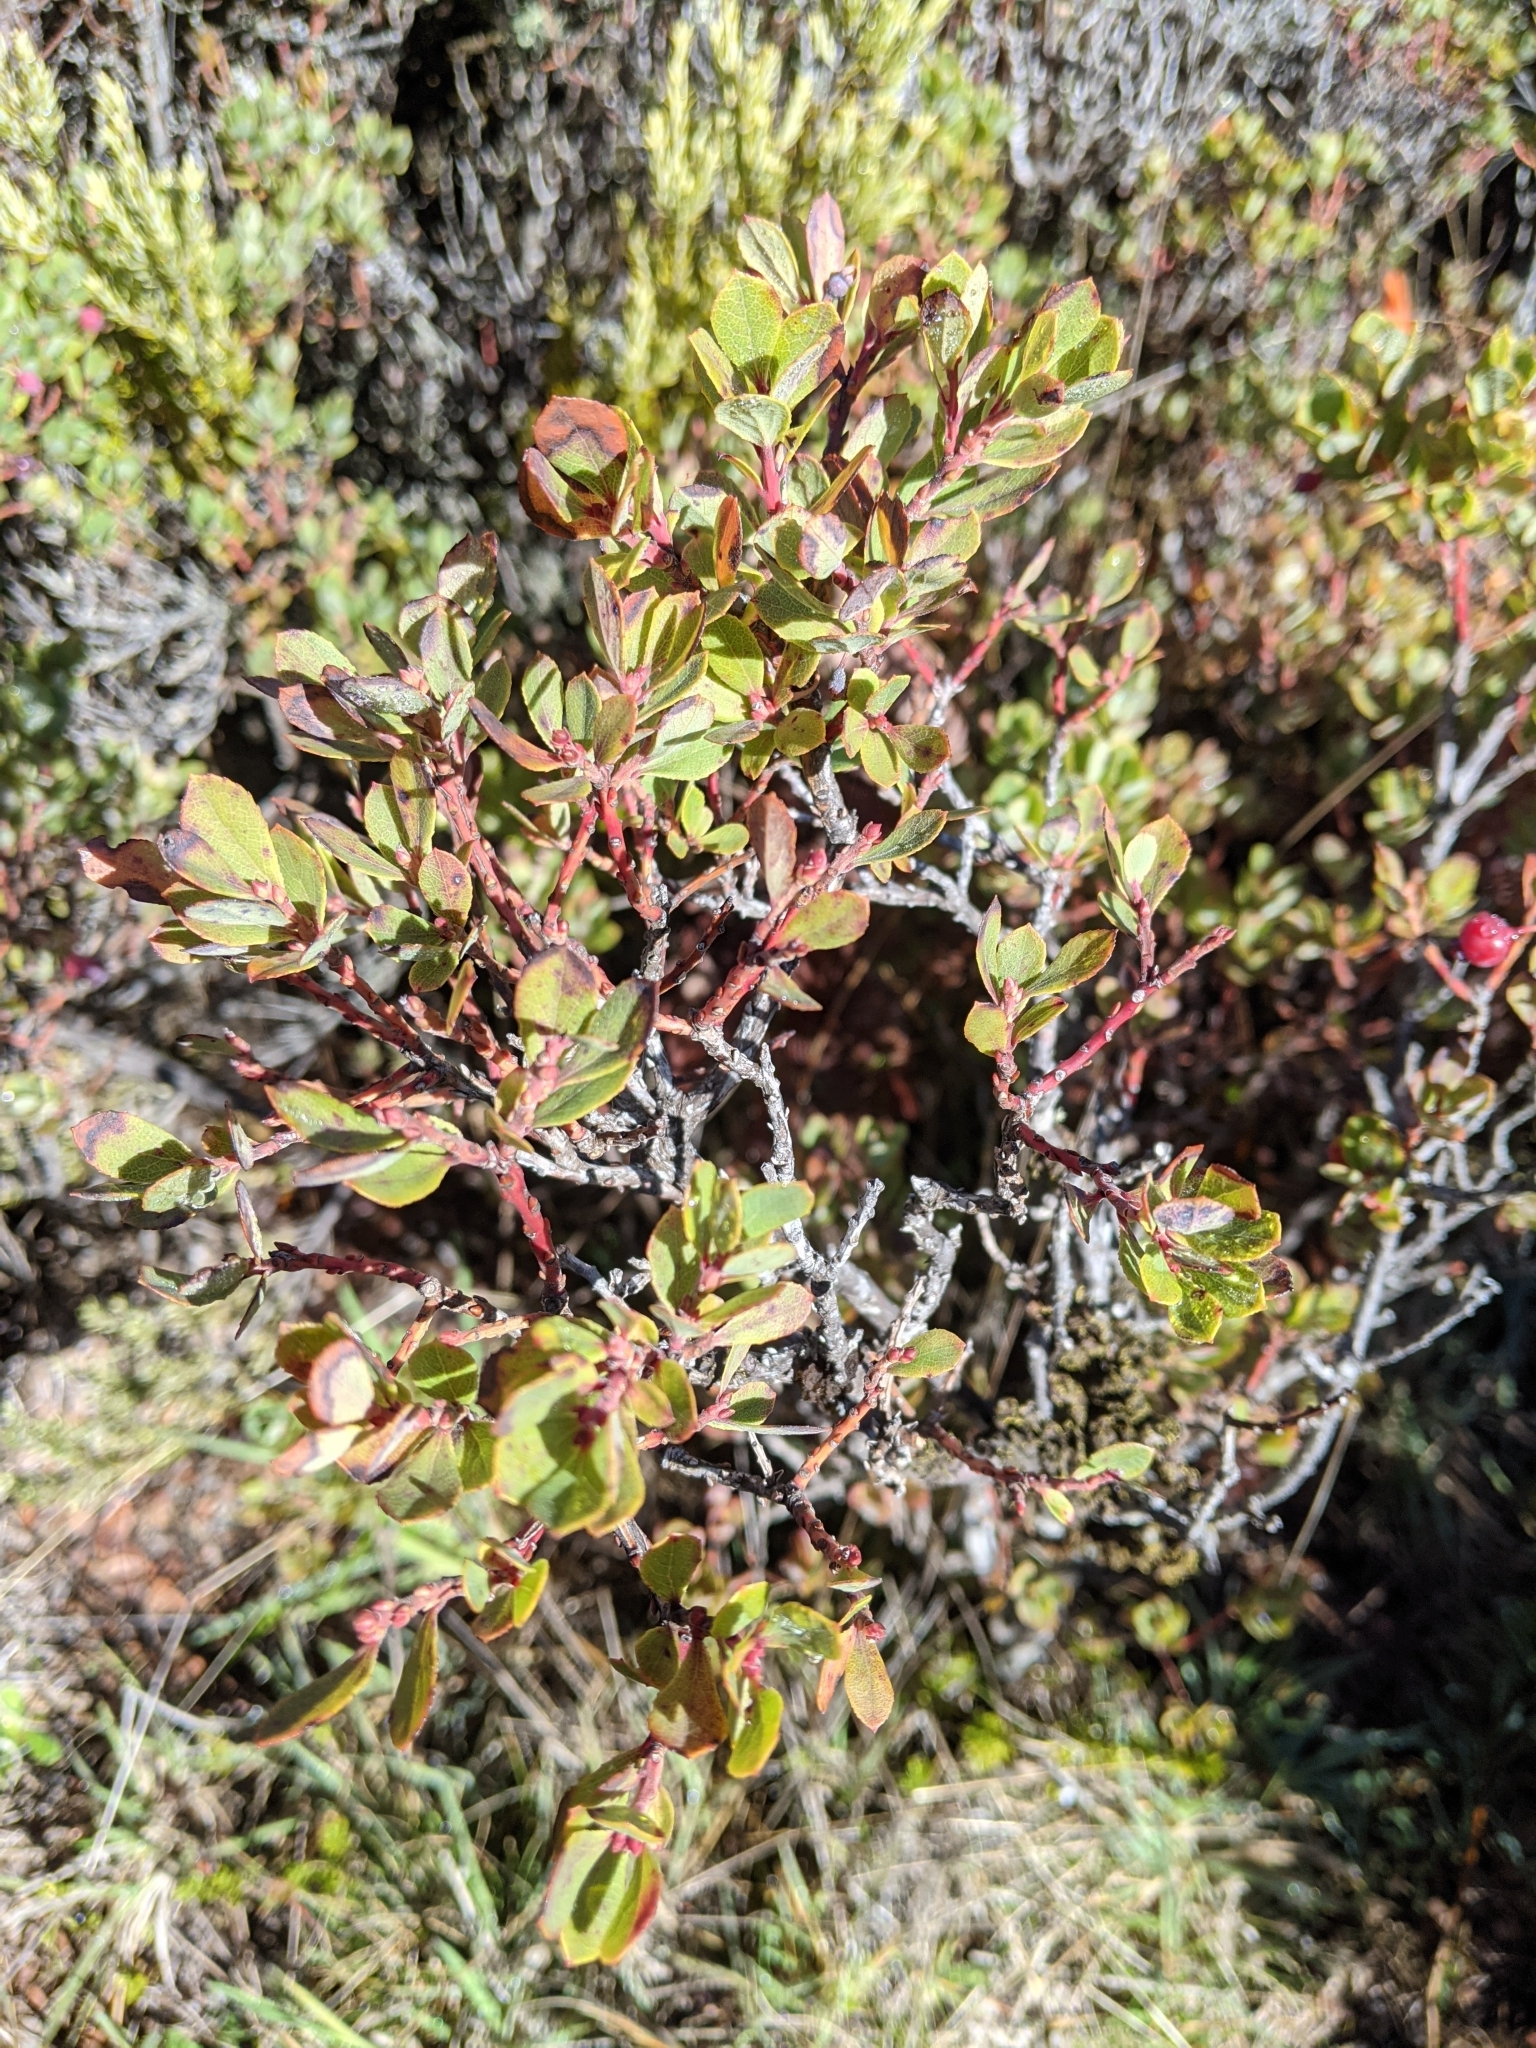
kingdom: Plantae
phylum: Tracheophyta
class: Magnoliopsida
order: Ericales
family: Ericaceae
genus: Vaccinium
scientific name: Vaccinium reticulatum
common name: Ohelo
